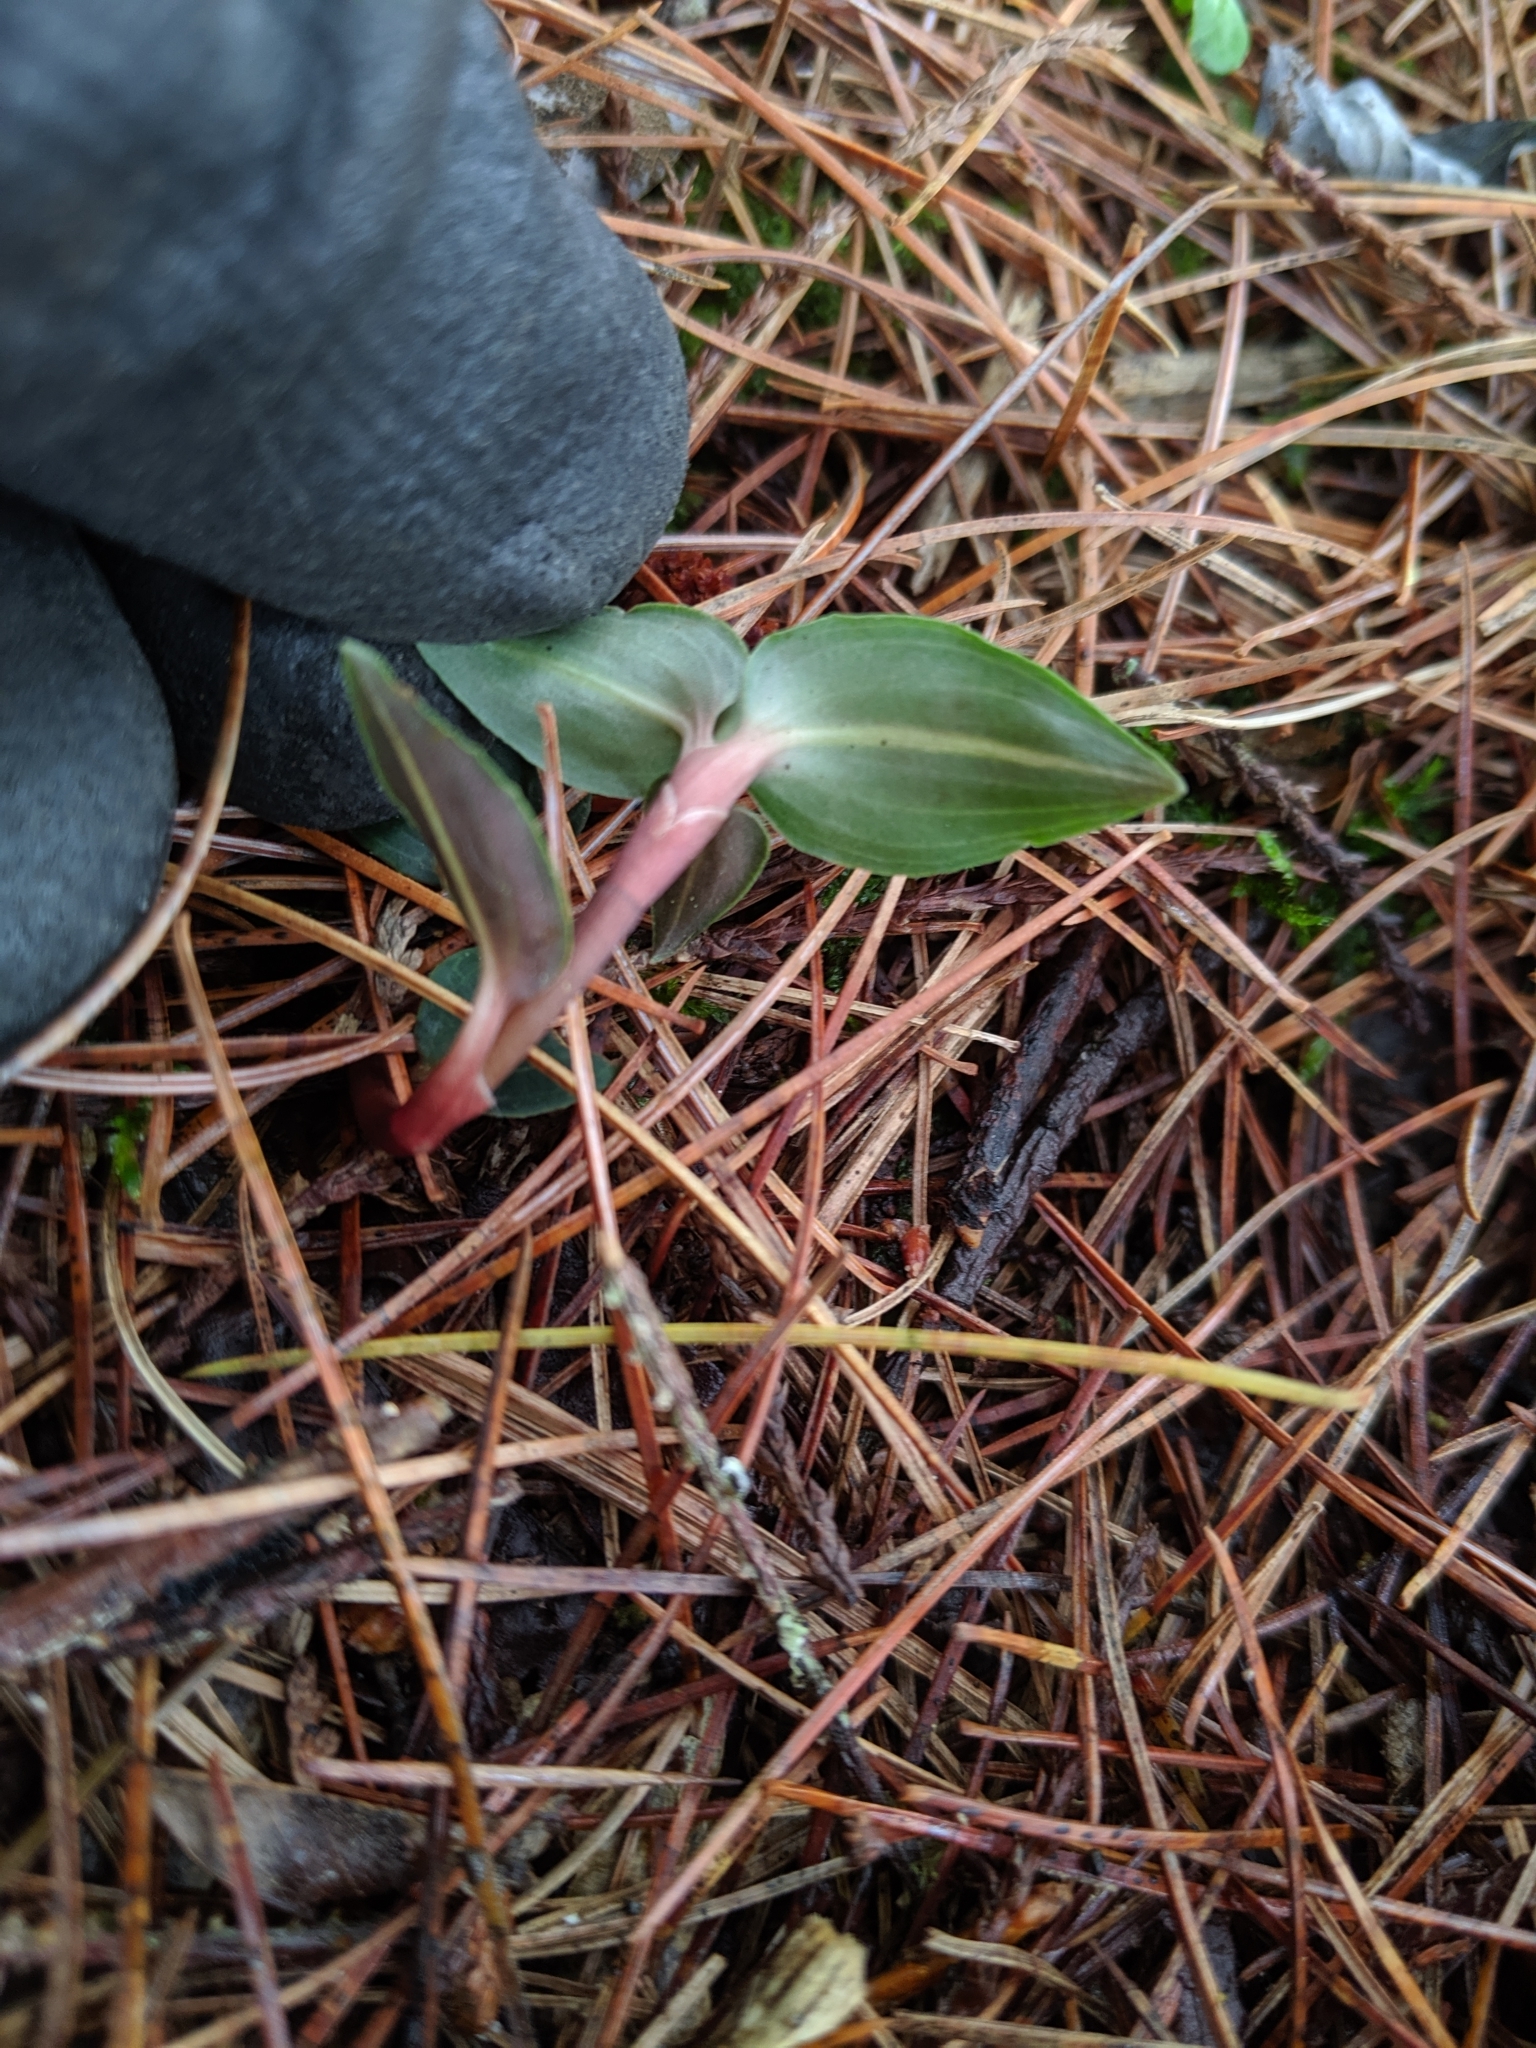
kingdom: Plantae
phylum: Tracheophyta
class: Liliopsida
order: Asparagales
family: Orchidaceae
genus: Goodyera
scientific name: Goodyera velutina
